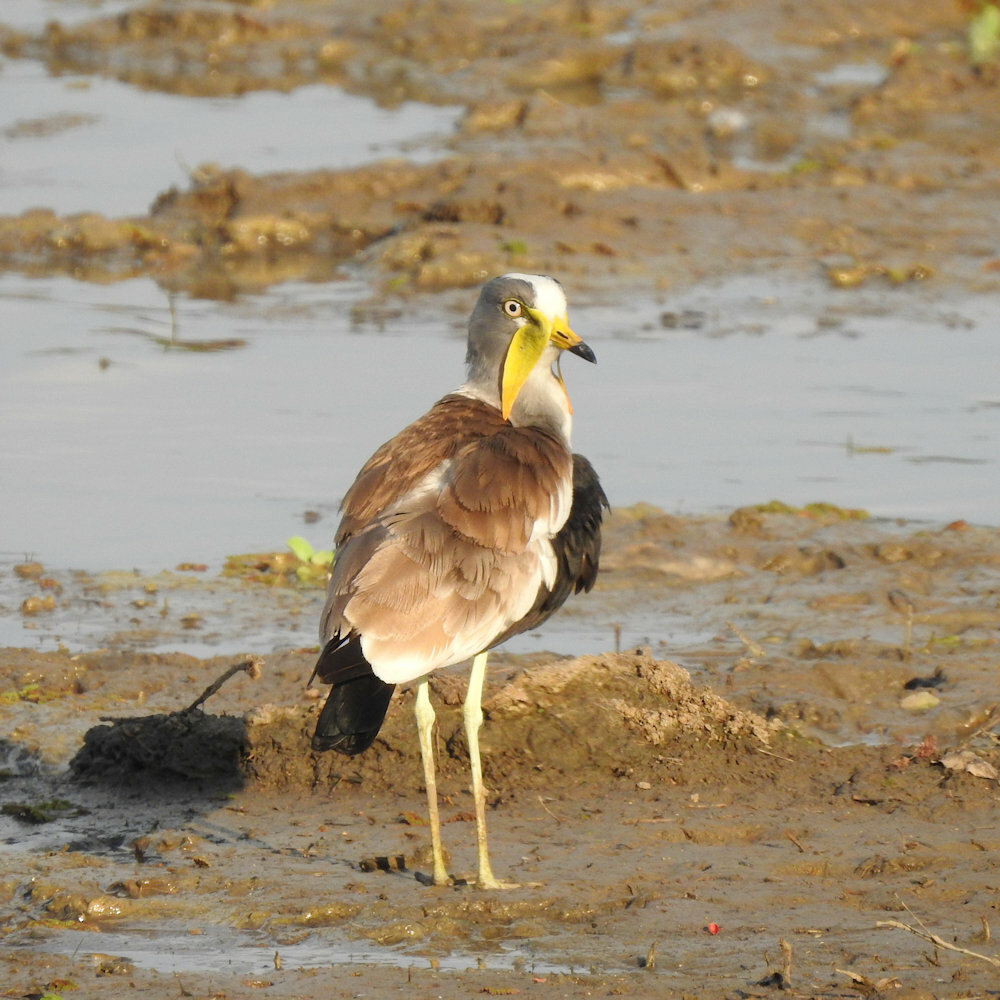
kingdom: Animalia
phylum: Chordata
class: Aves
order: Charadriiformes
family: Charadriidae
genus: Vanellus
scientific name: Vanellus albiceps
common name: White-crowned lapwing
